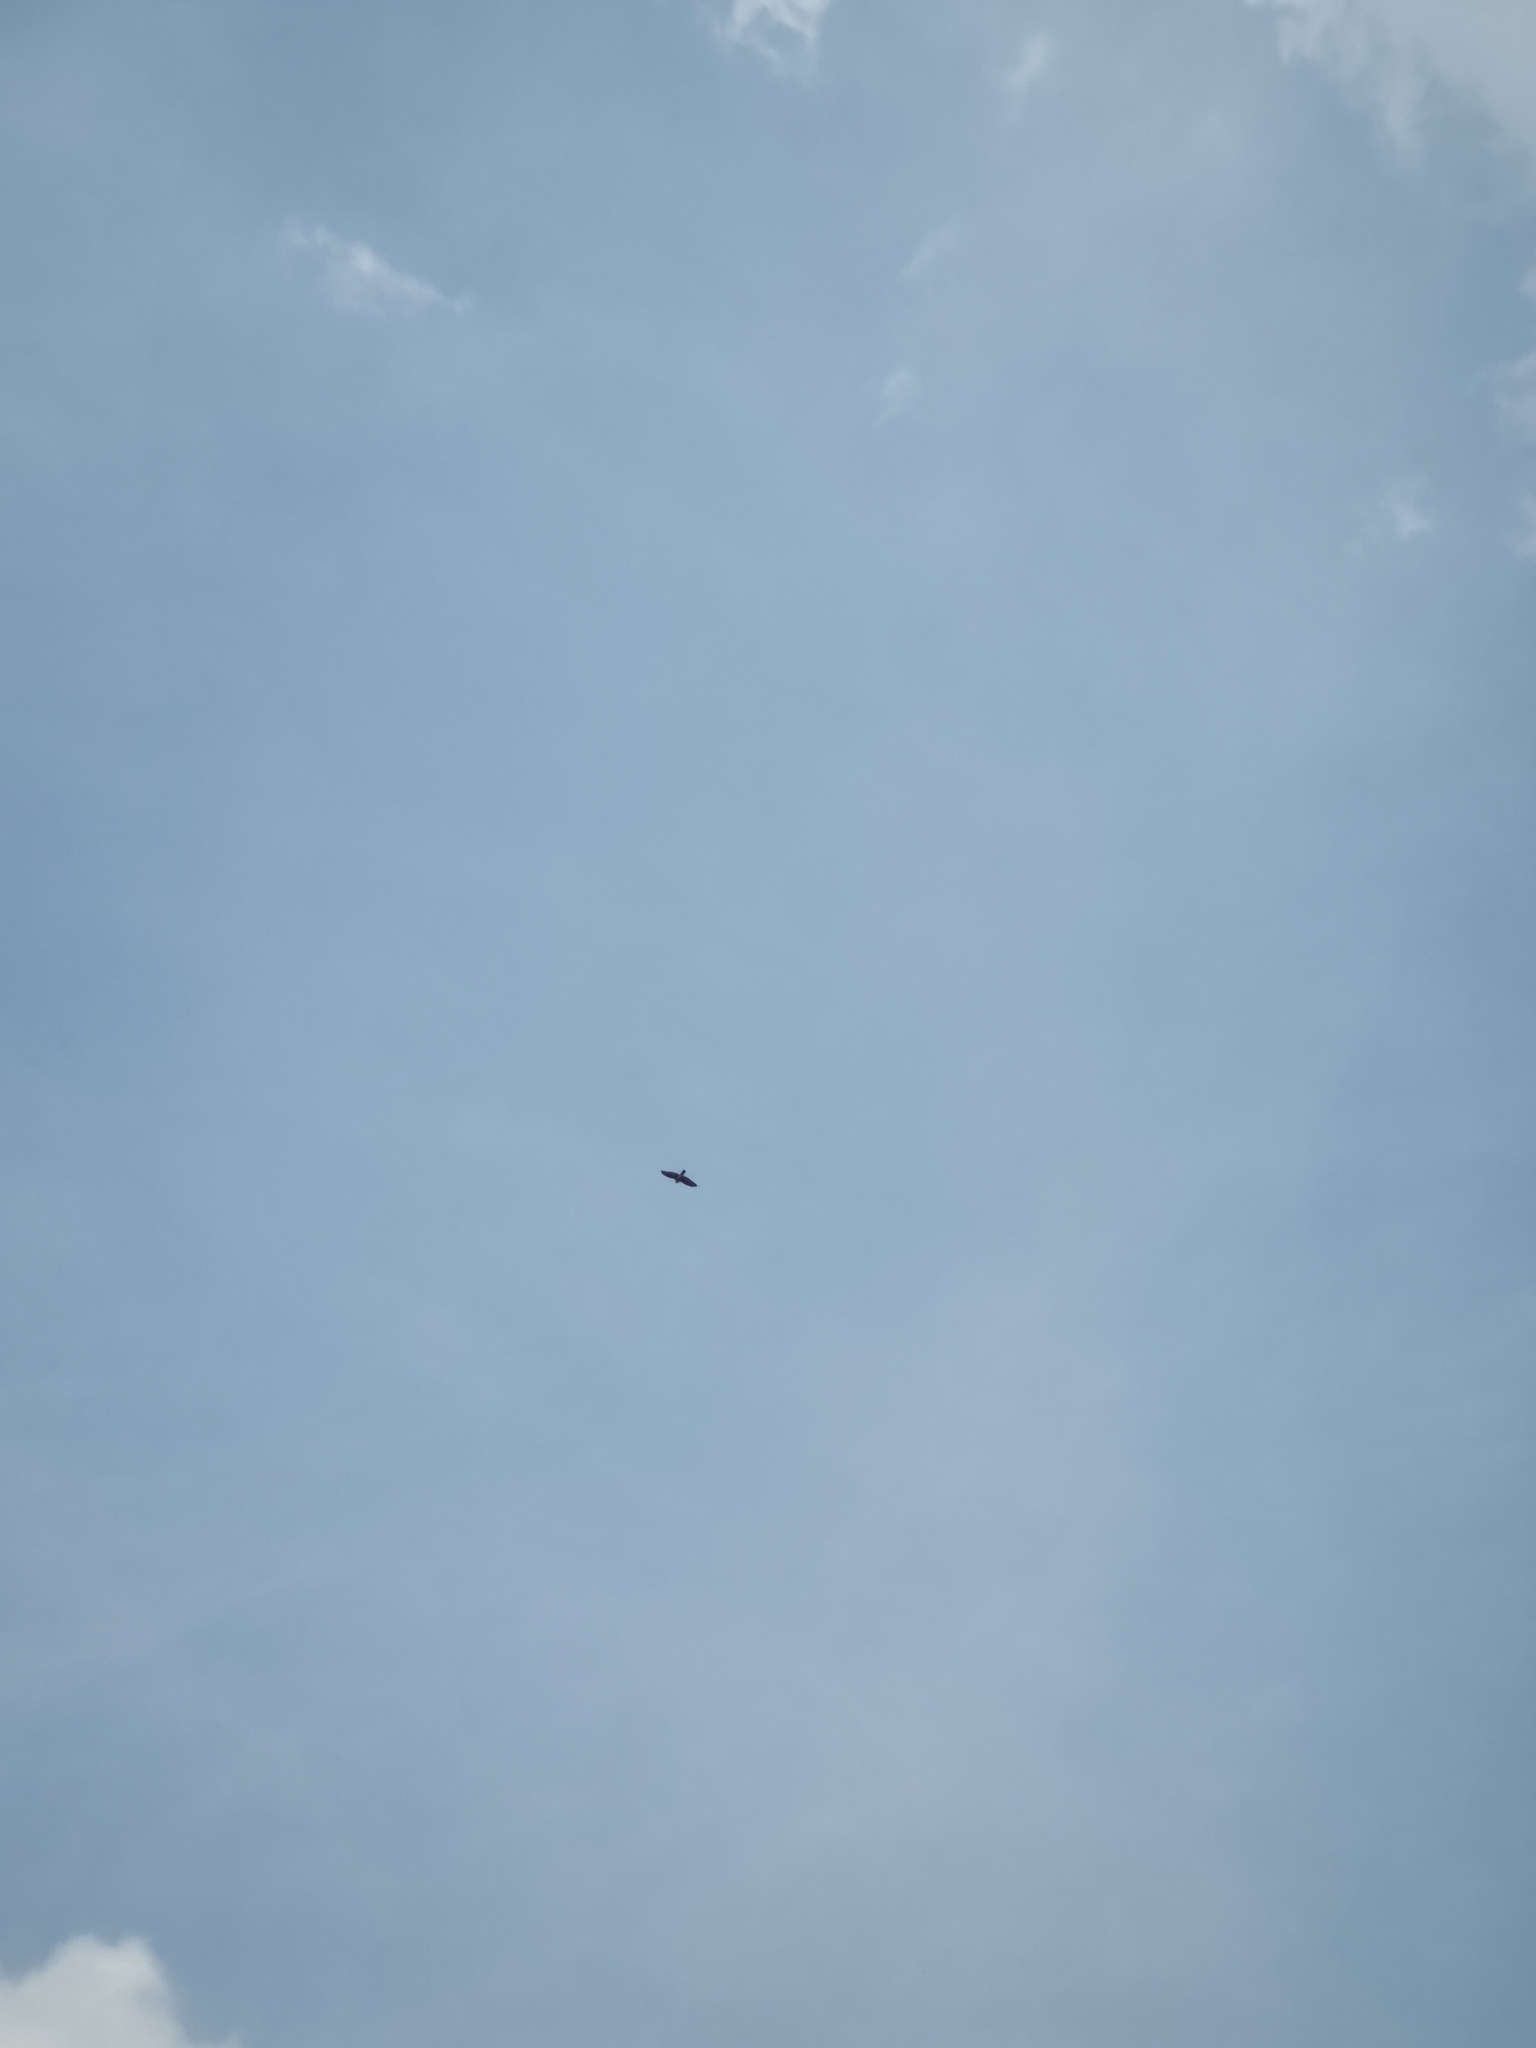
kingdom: Animalia
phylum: Chordata
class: Aves
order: Accipitriformes
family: Accipitridae
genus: Accipiter
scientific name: Accipiter badius
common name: Shikra
